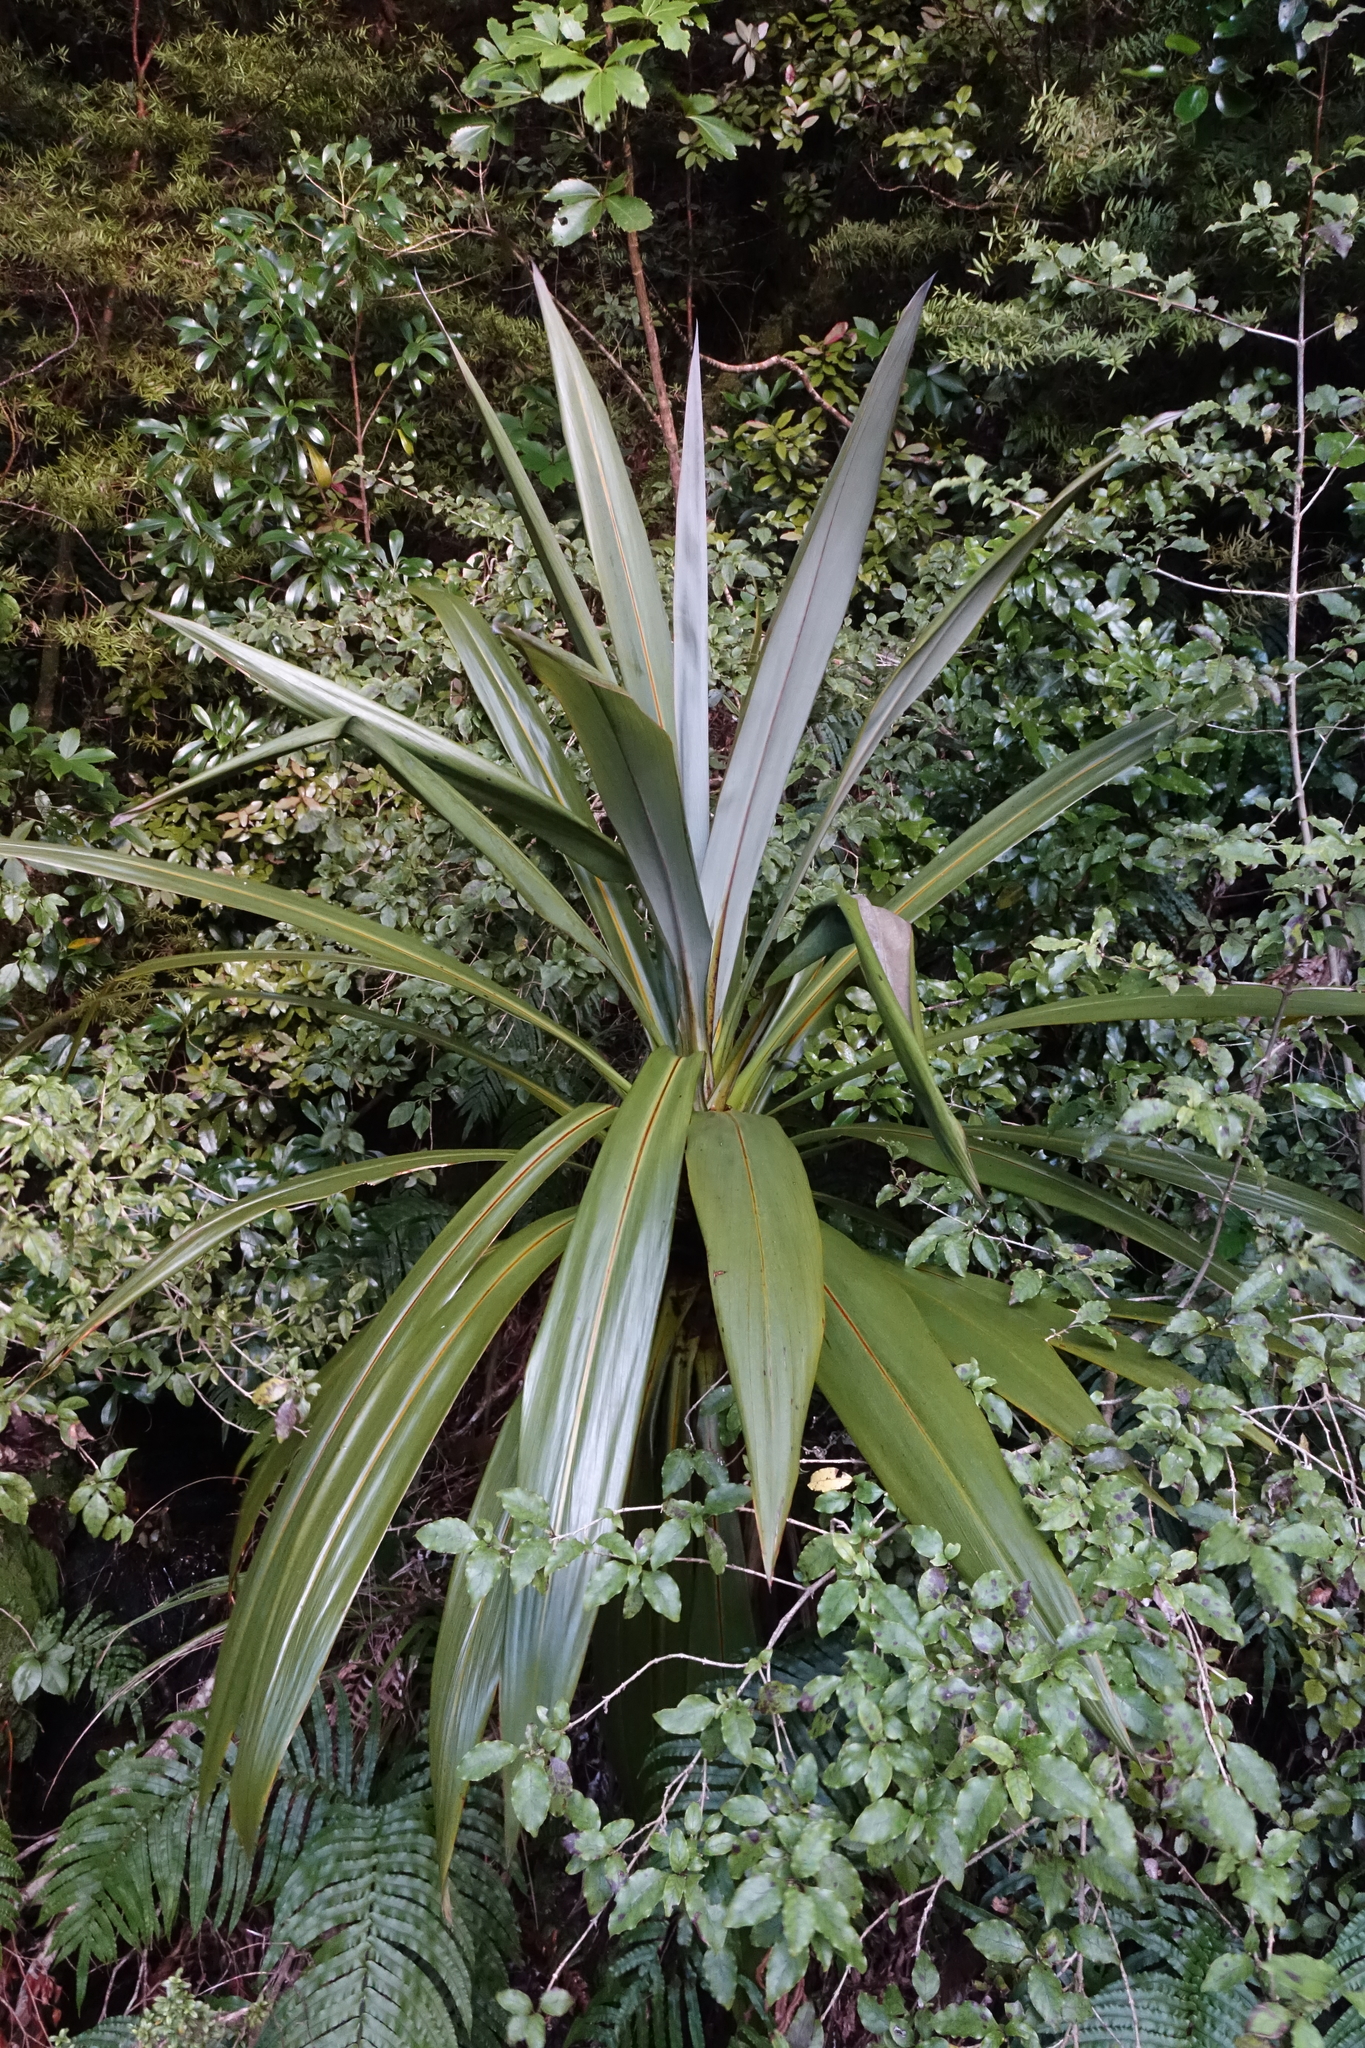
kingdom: Plantae
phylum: Tracheophyta
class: Liliopsida
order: Asparagales
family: Asparagaceae
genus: Cordyline
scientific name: Cordyline indivisa
